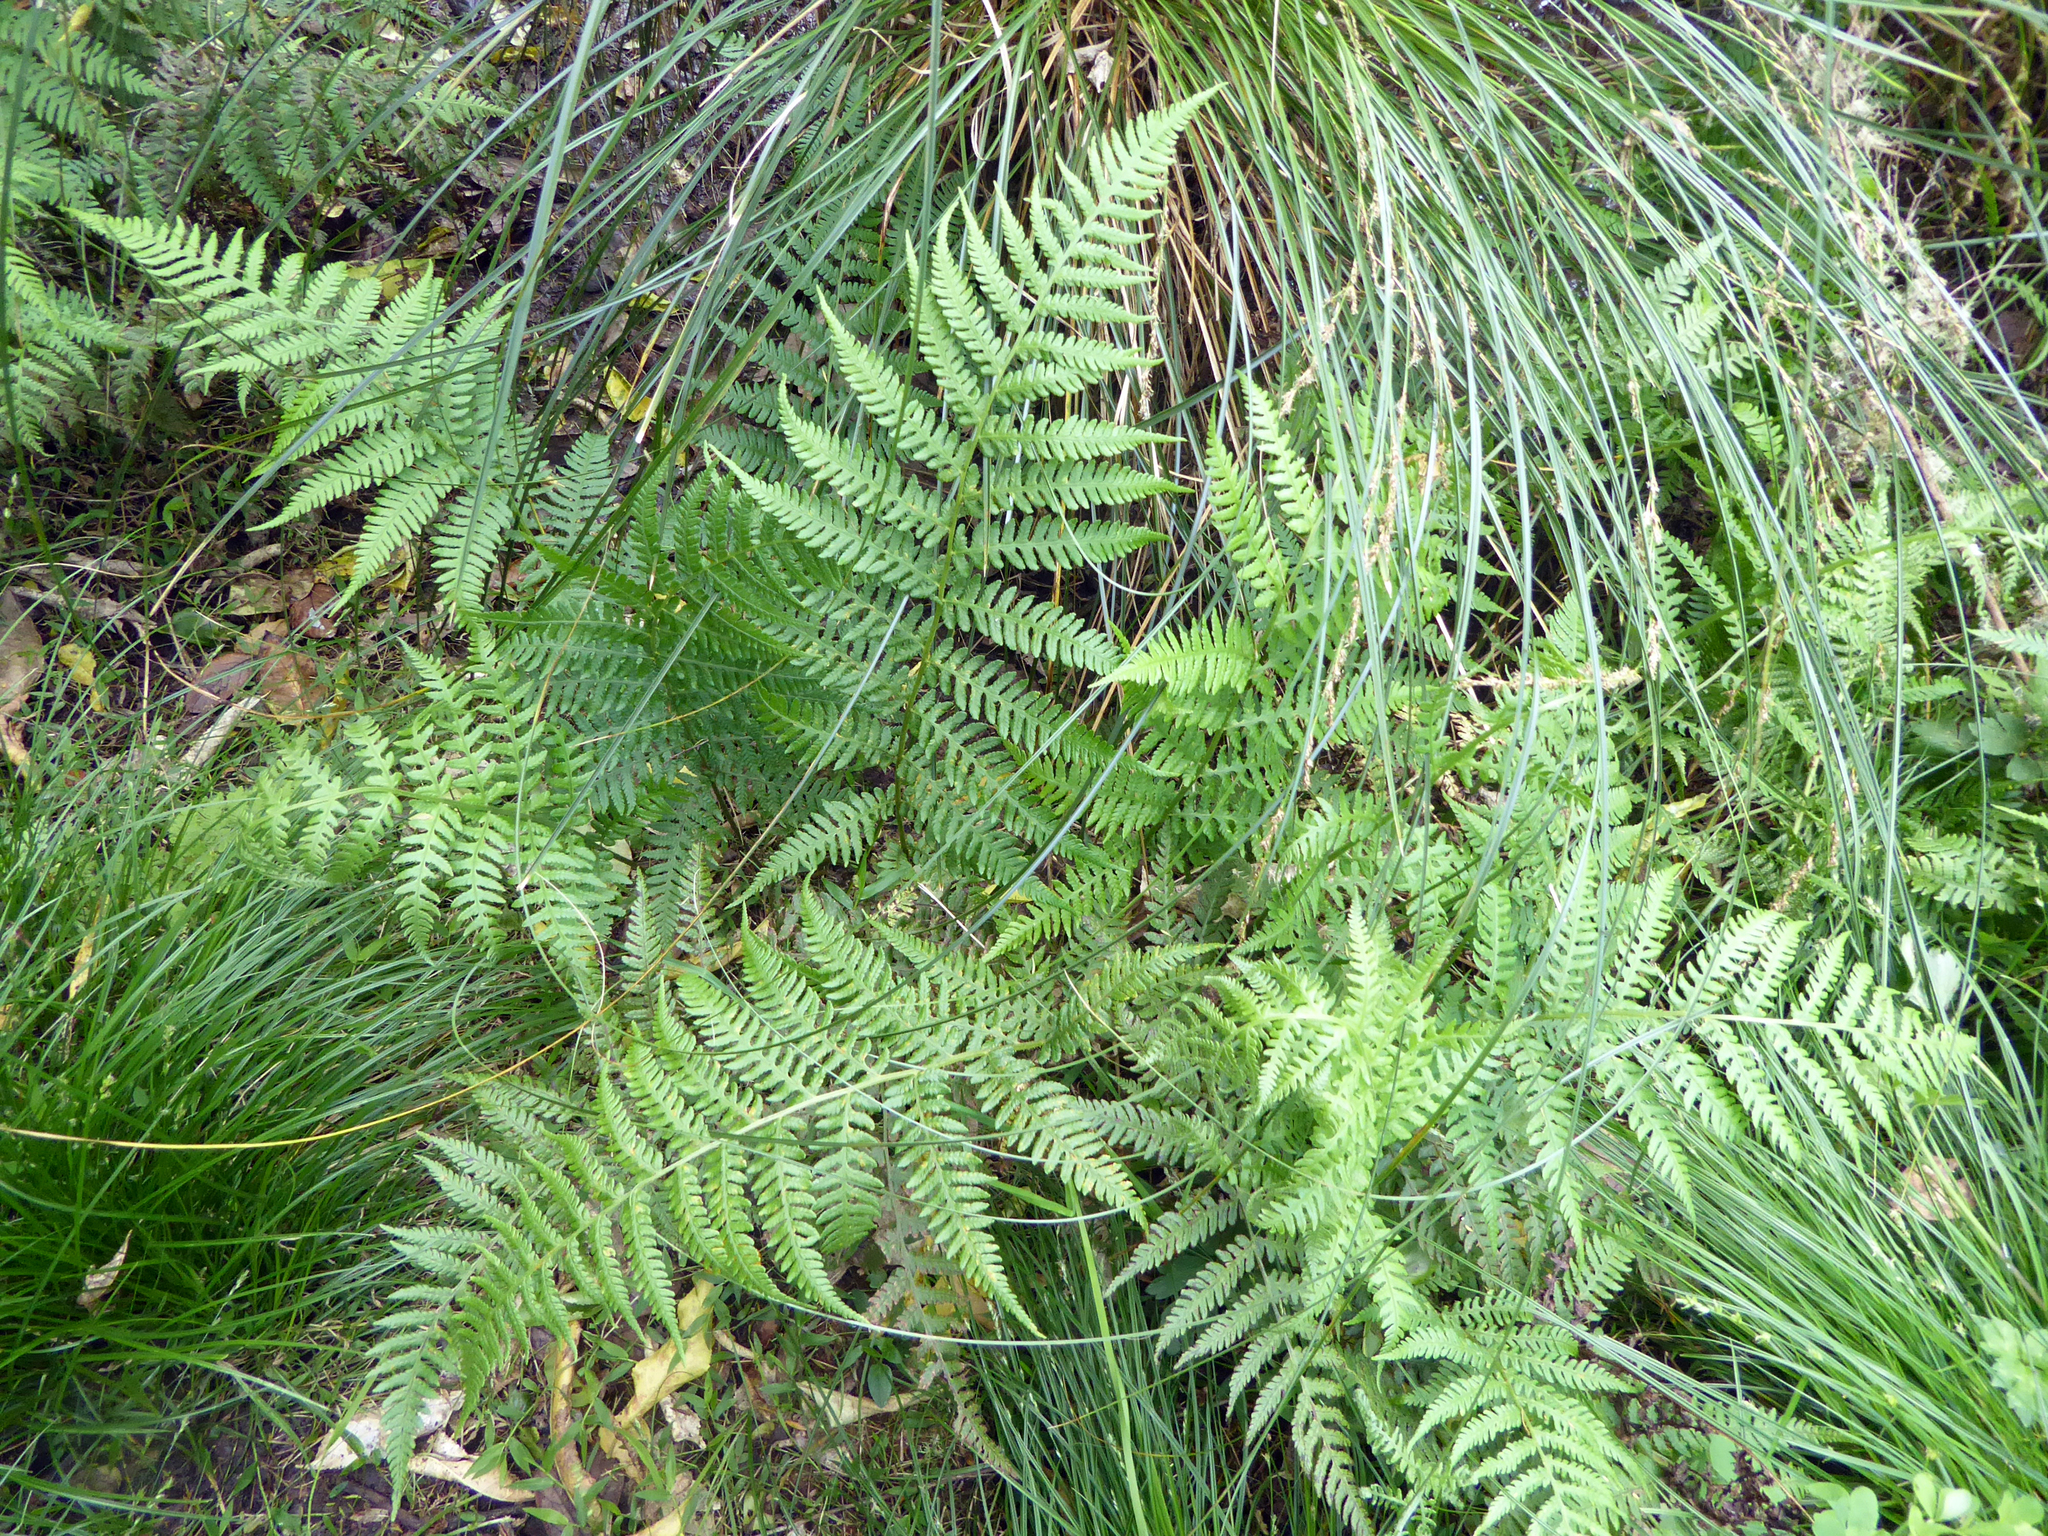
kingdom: Plantae
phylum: Tracheophyta
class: Polypodiopsida
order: Polypodiales
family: Athyriaceae
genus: Diplazium
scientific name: Diplazium congruum
